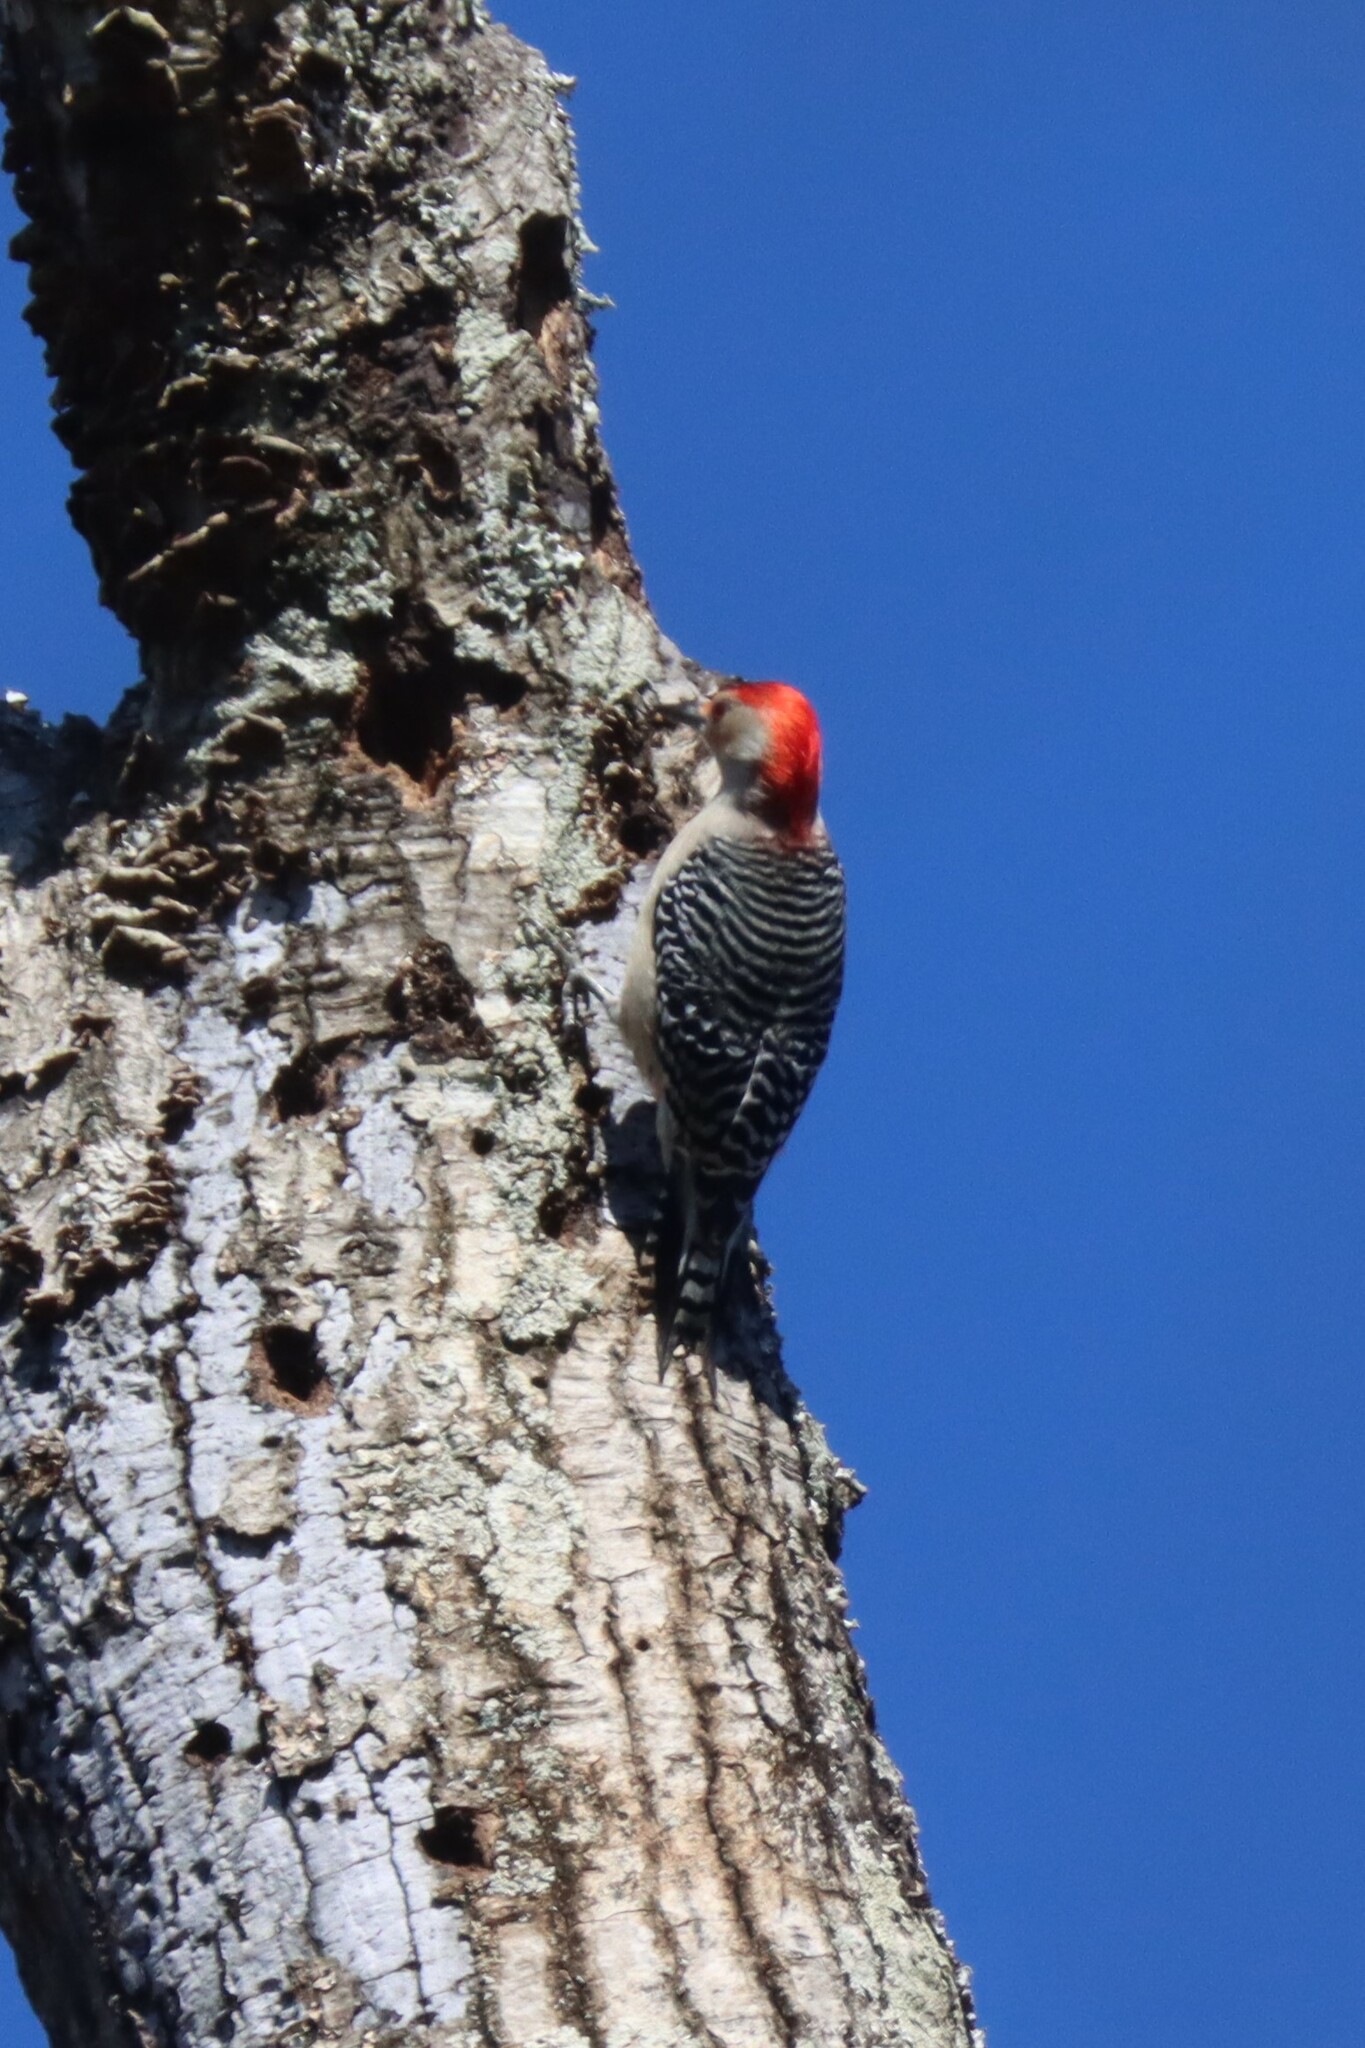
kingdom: Animalia
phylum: Chordata
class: Aves
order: Piciformes
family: Picidae
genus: Melanerpes
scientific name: Melanerpes carolinus
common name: Red-bellied woodpecker
